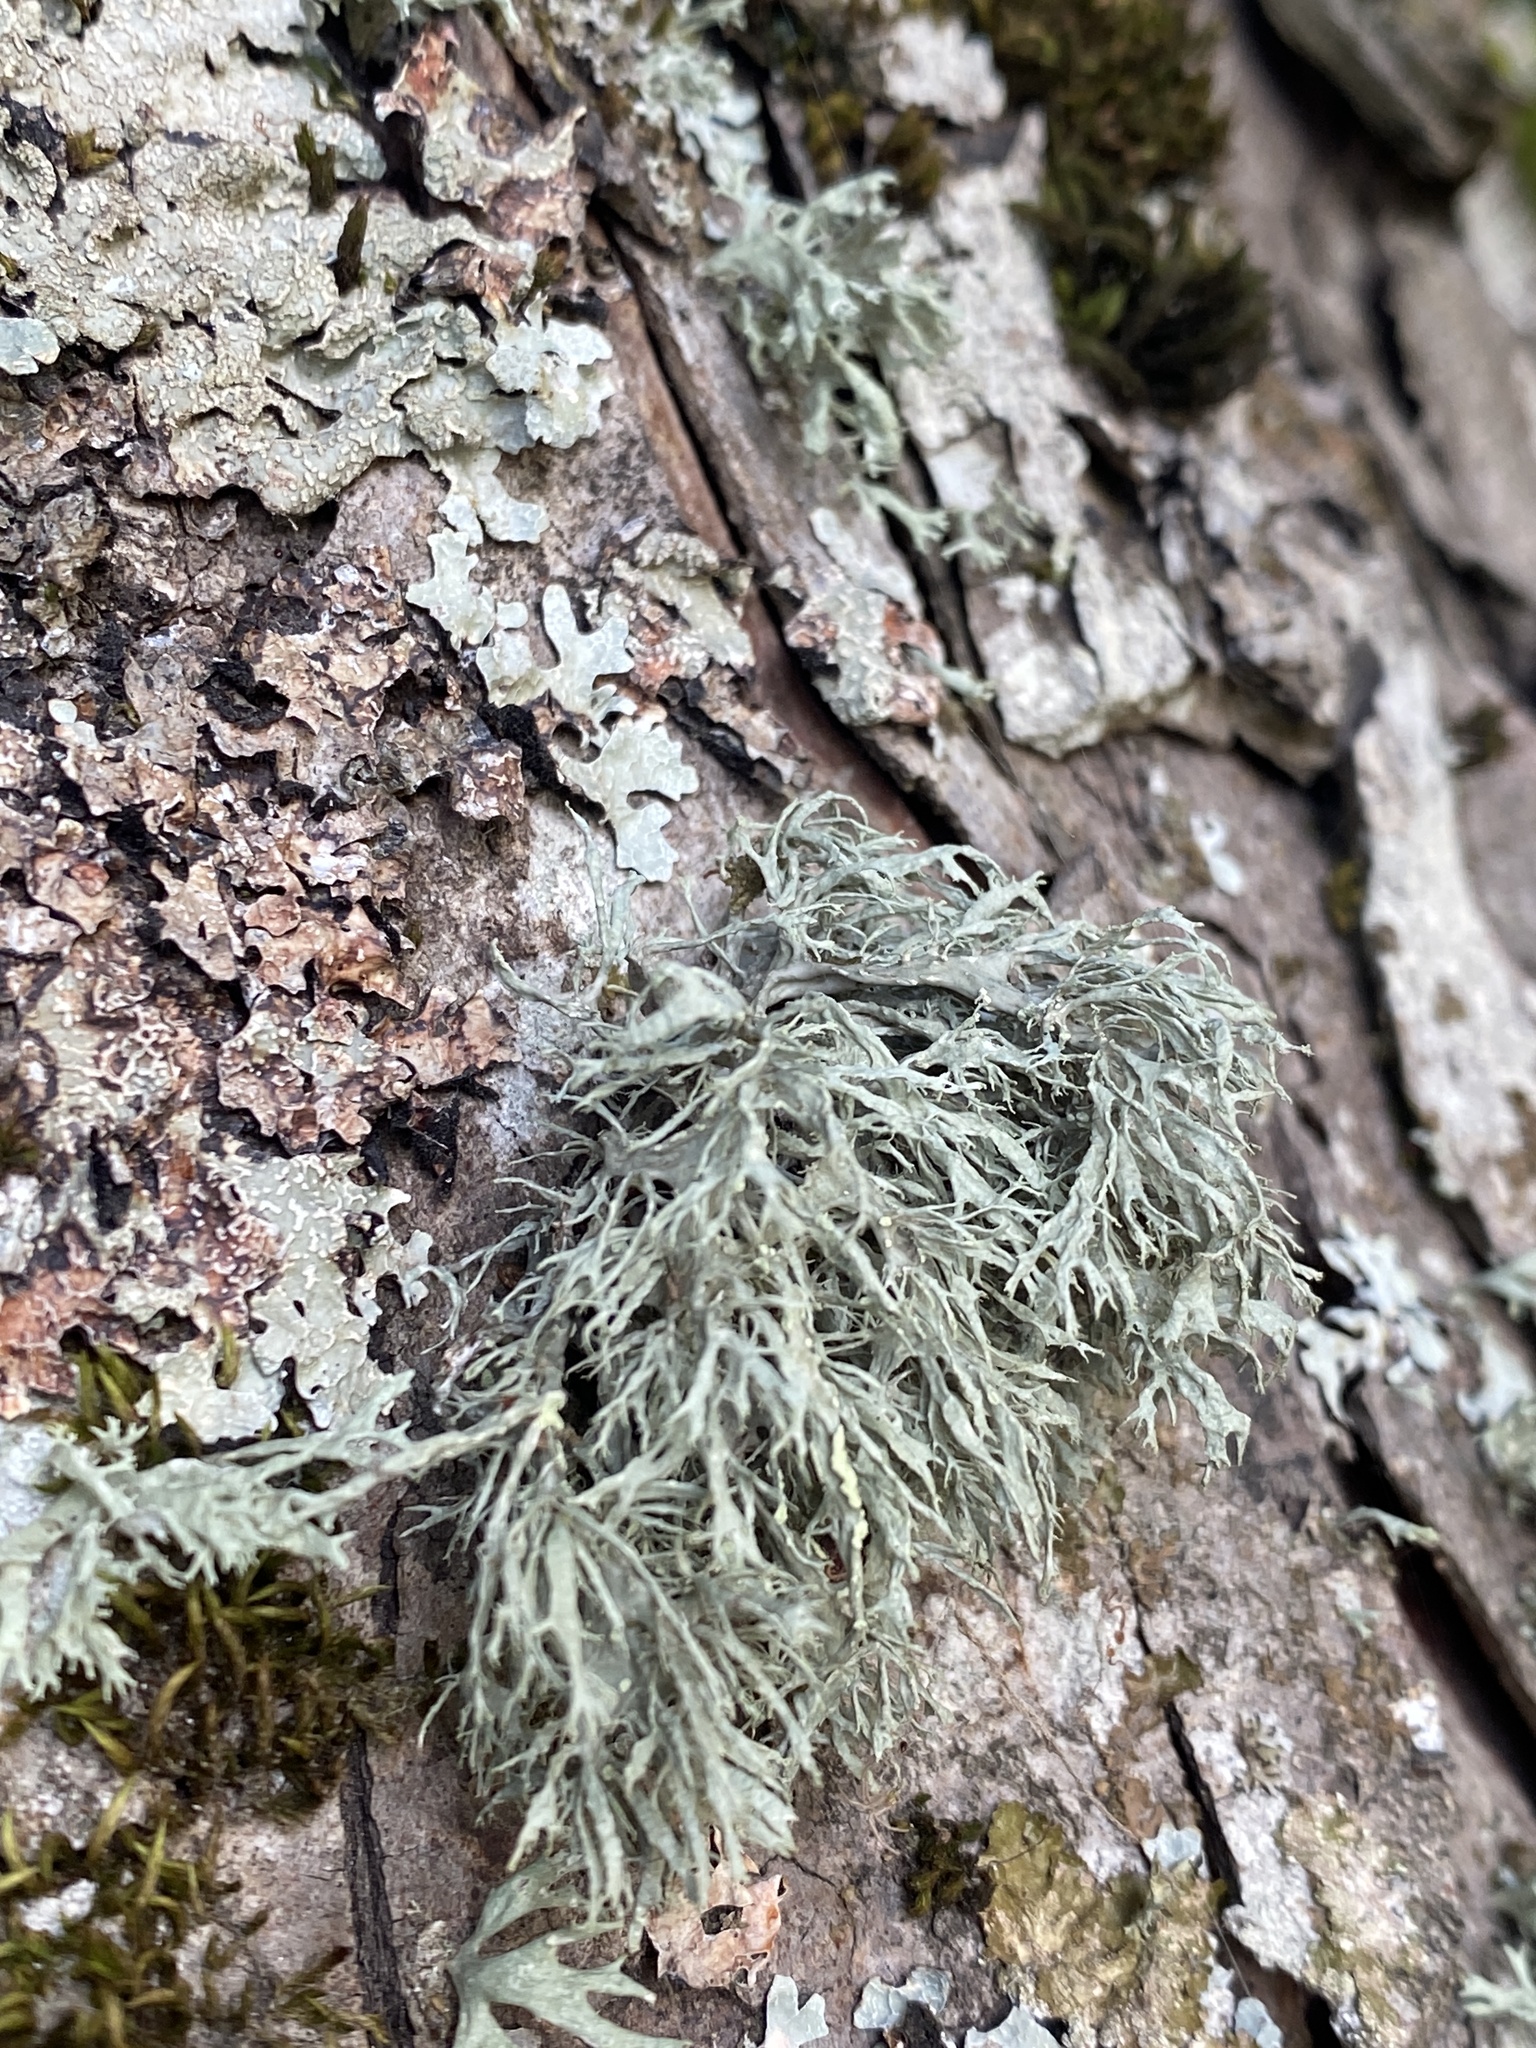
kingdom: Fungi
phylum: Ascomycota
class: Lecanoromycetes
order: Lecanorales
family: Ramalinaceae
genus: Ramalina
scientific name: Ramalina farinacea
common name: Farinose cartilage lichen
